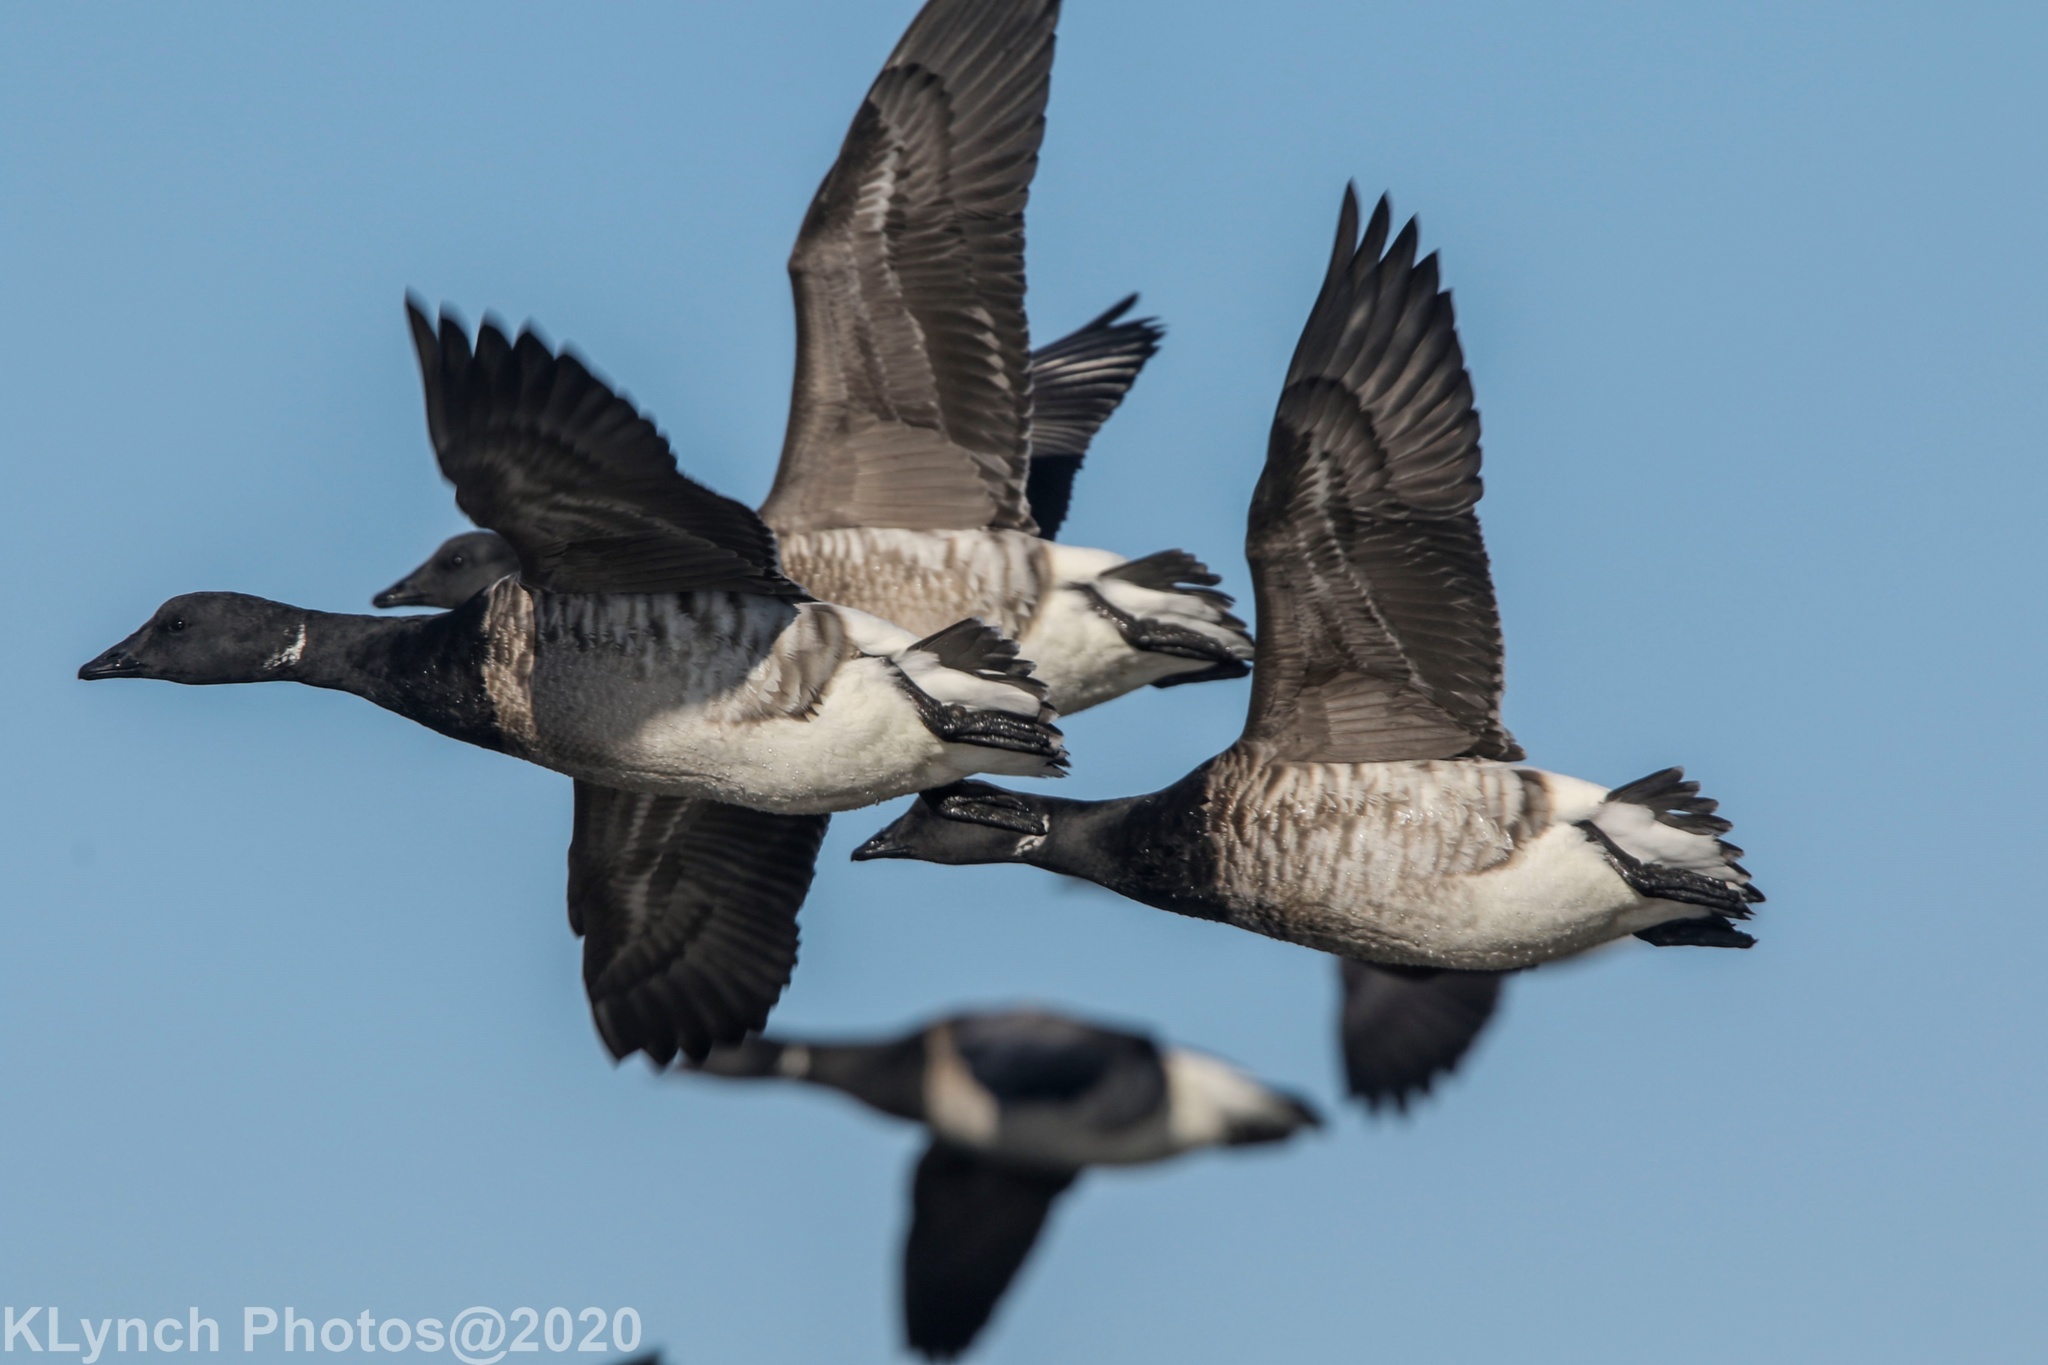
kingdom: Animalia
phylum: Chordata
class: Aves
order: Anseriformes
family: Anatidae
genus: Branta
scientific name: Branta bernicla
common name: Brant goose
